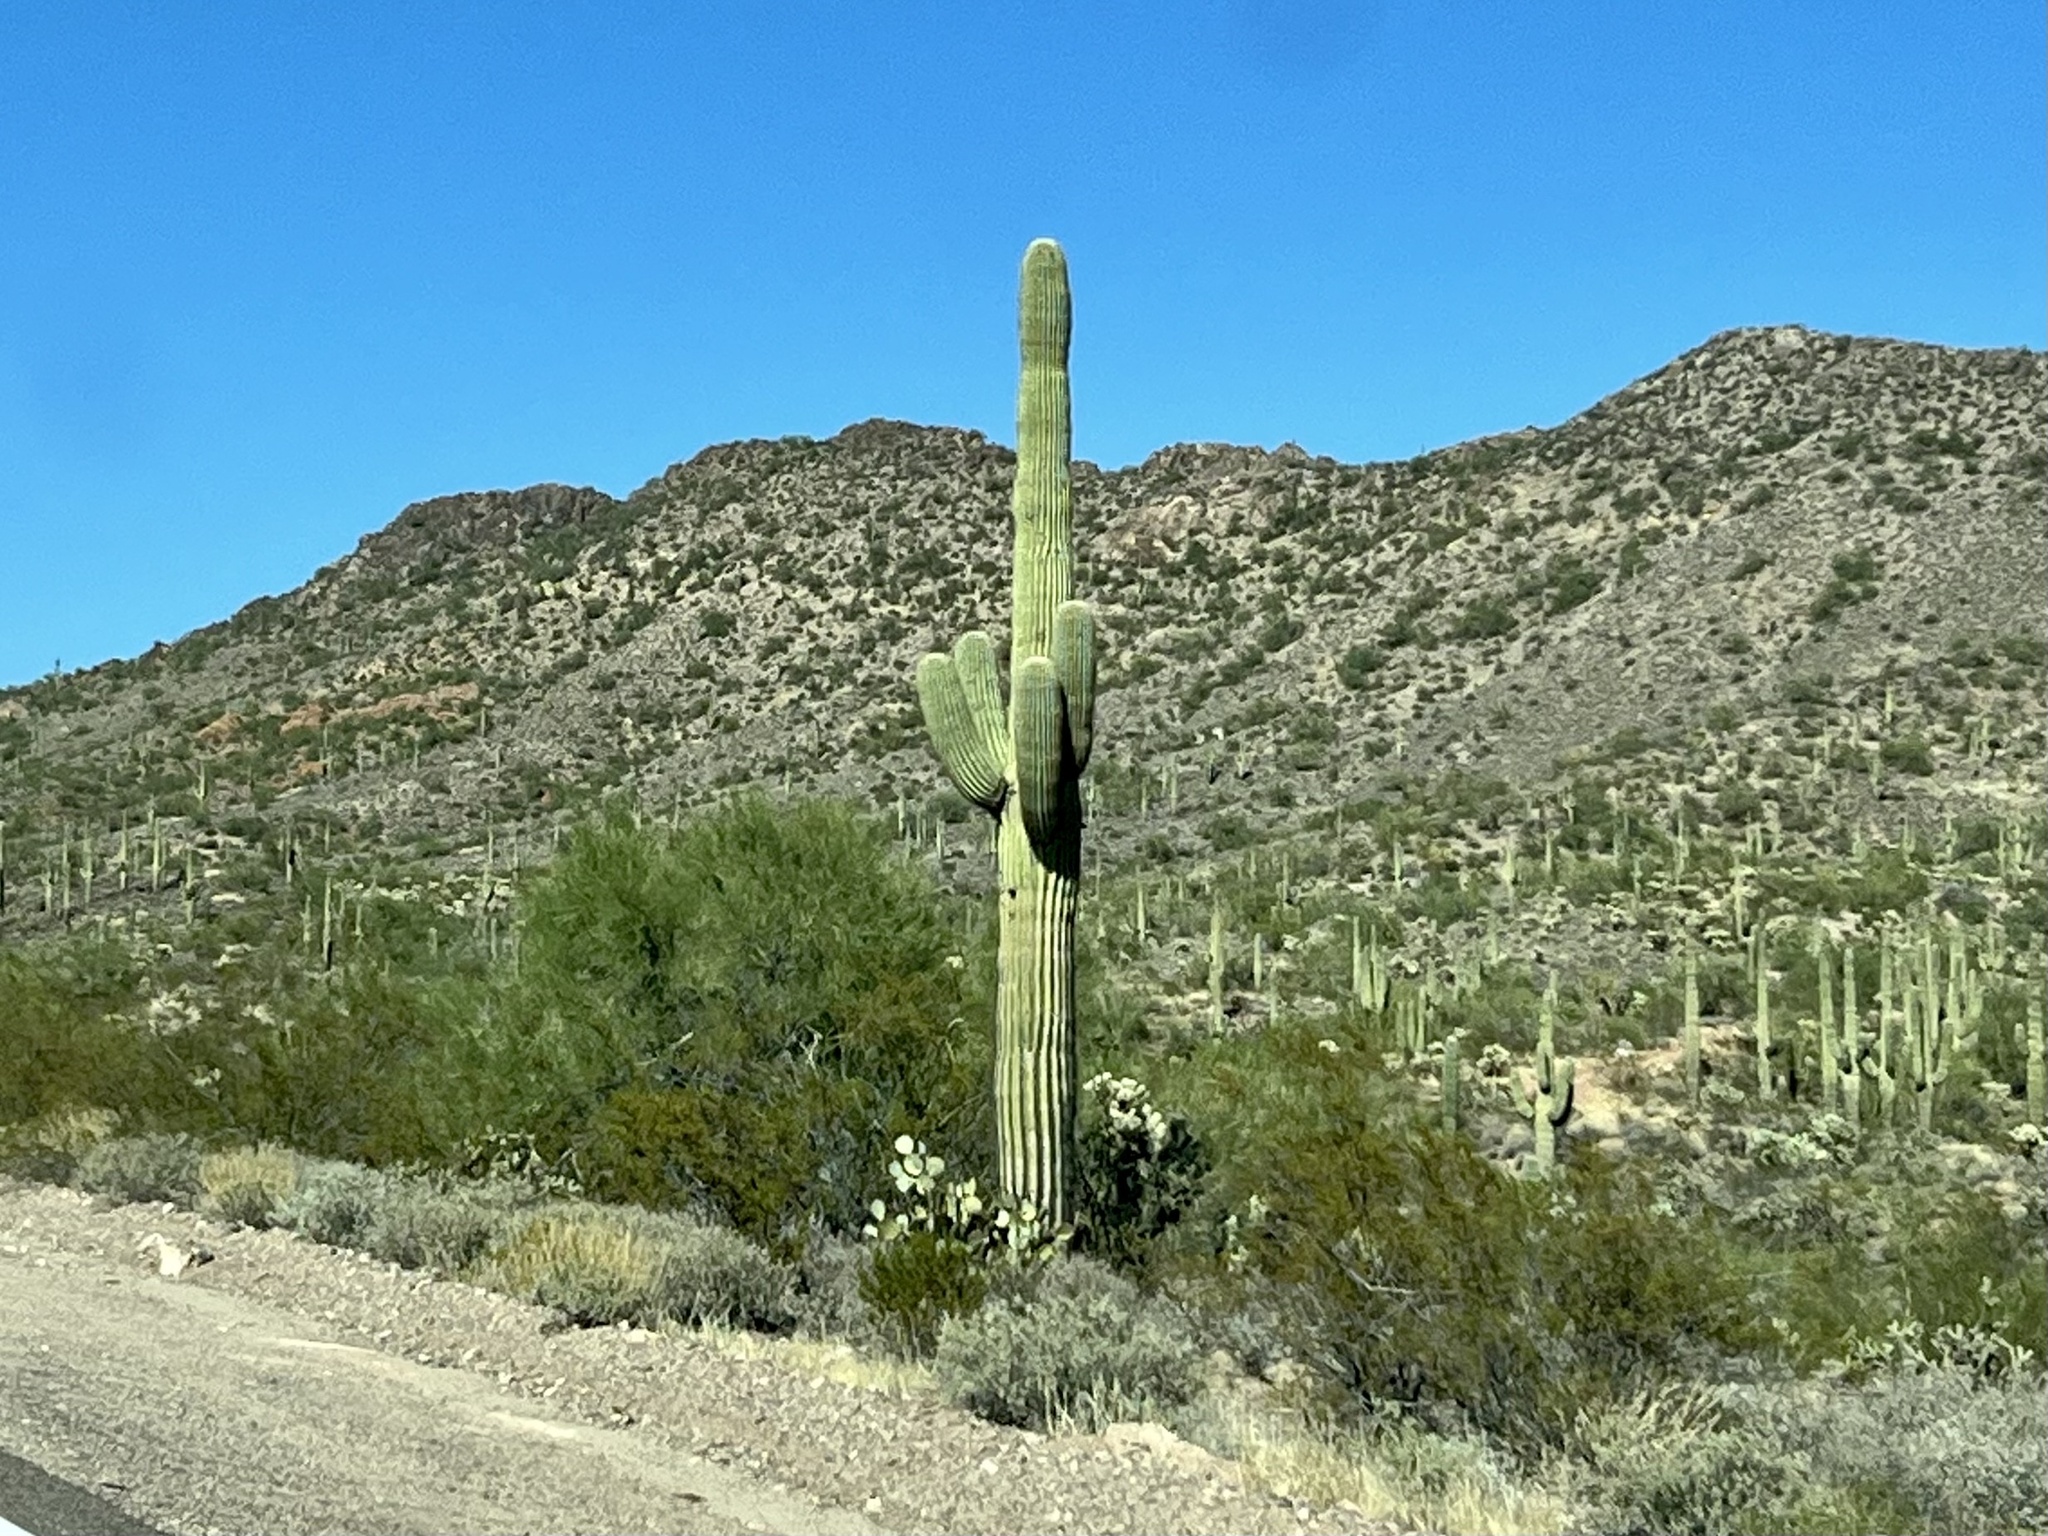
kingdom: Plantae
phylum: Tracheophyta
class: Magnoliopsida
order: Caryophyllales
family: Cactaceae
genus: Carnegiea
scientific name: Carnegiea gigantea
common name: Saguaro
